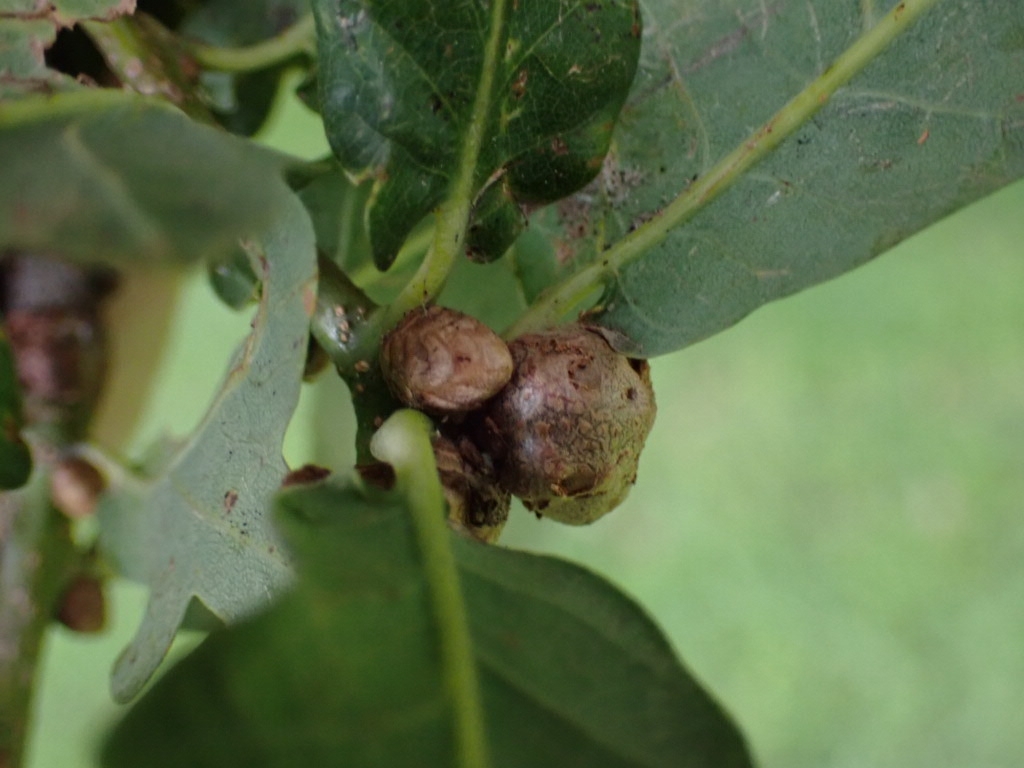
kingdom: Animalia
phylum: Arthropoda
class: Insecta
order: Hymenoptera
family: Cynipidae
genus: Andricus
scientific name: Andricus lignicolus
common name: Cola-nut gall
